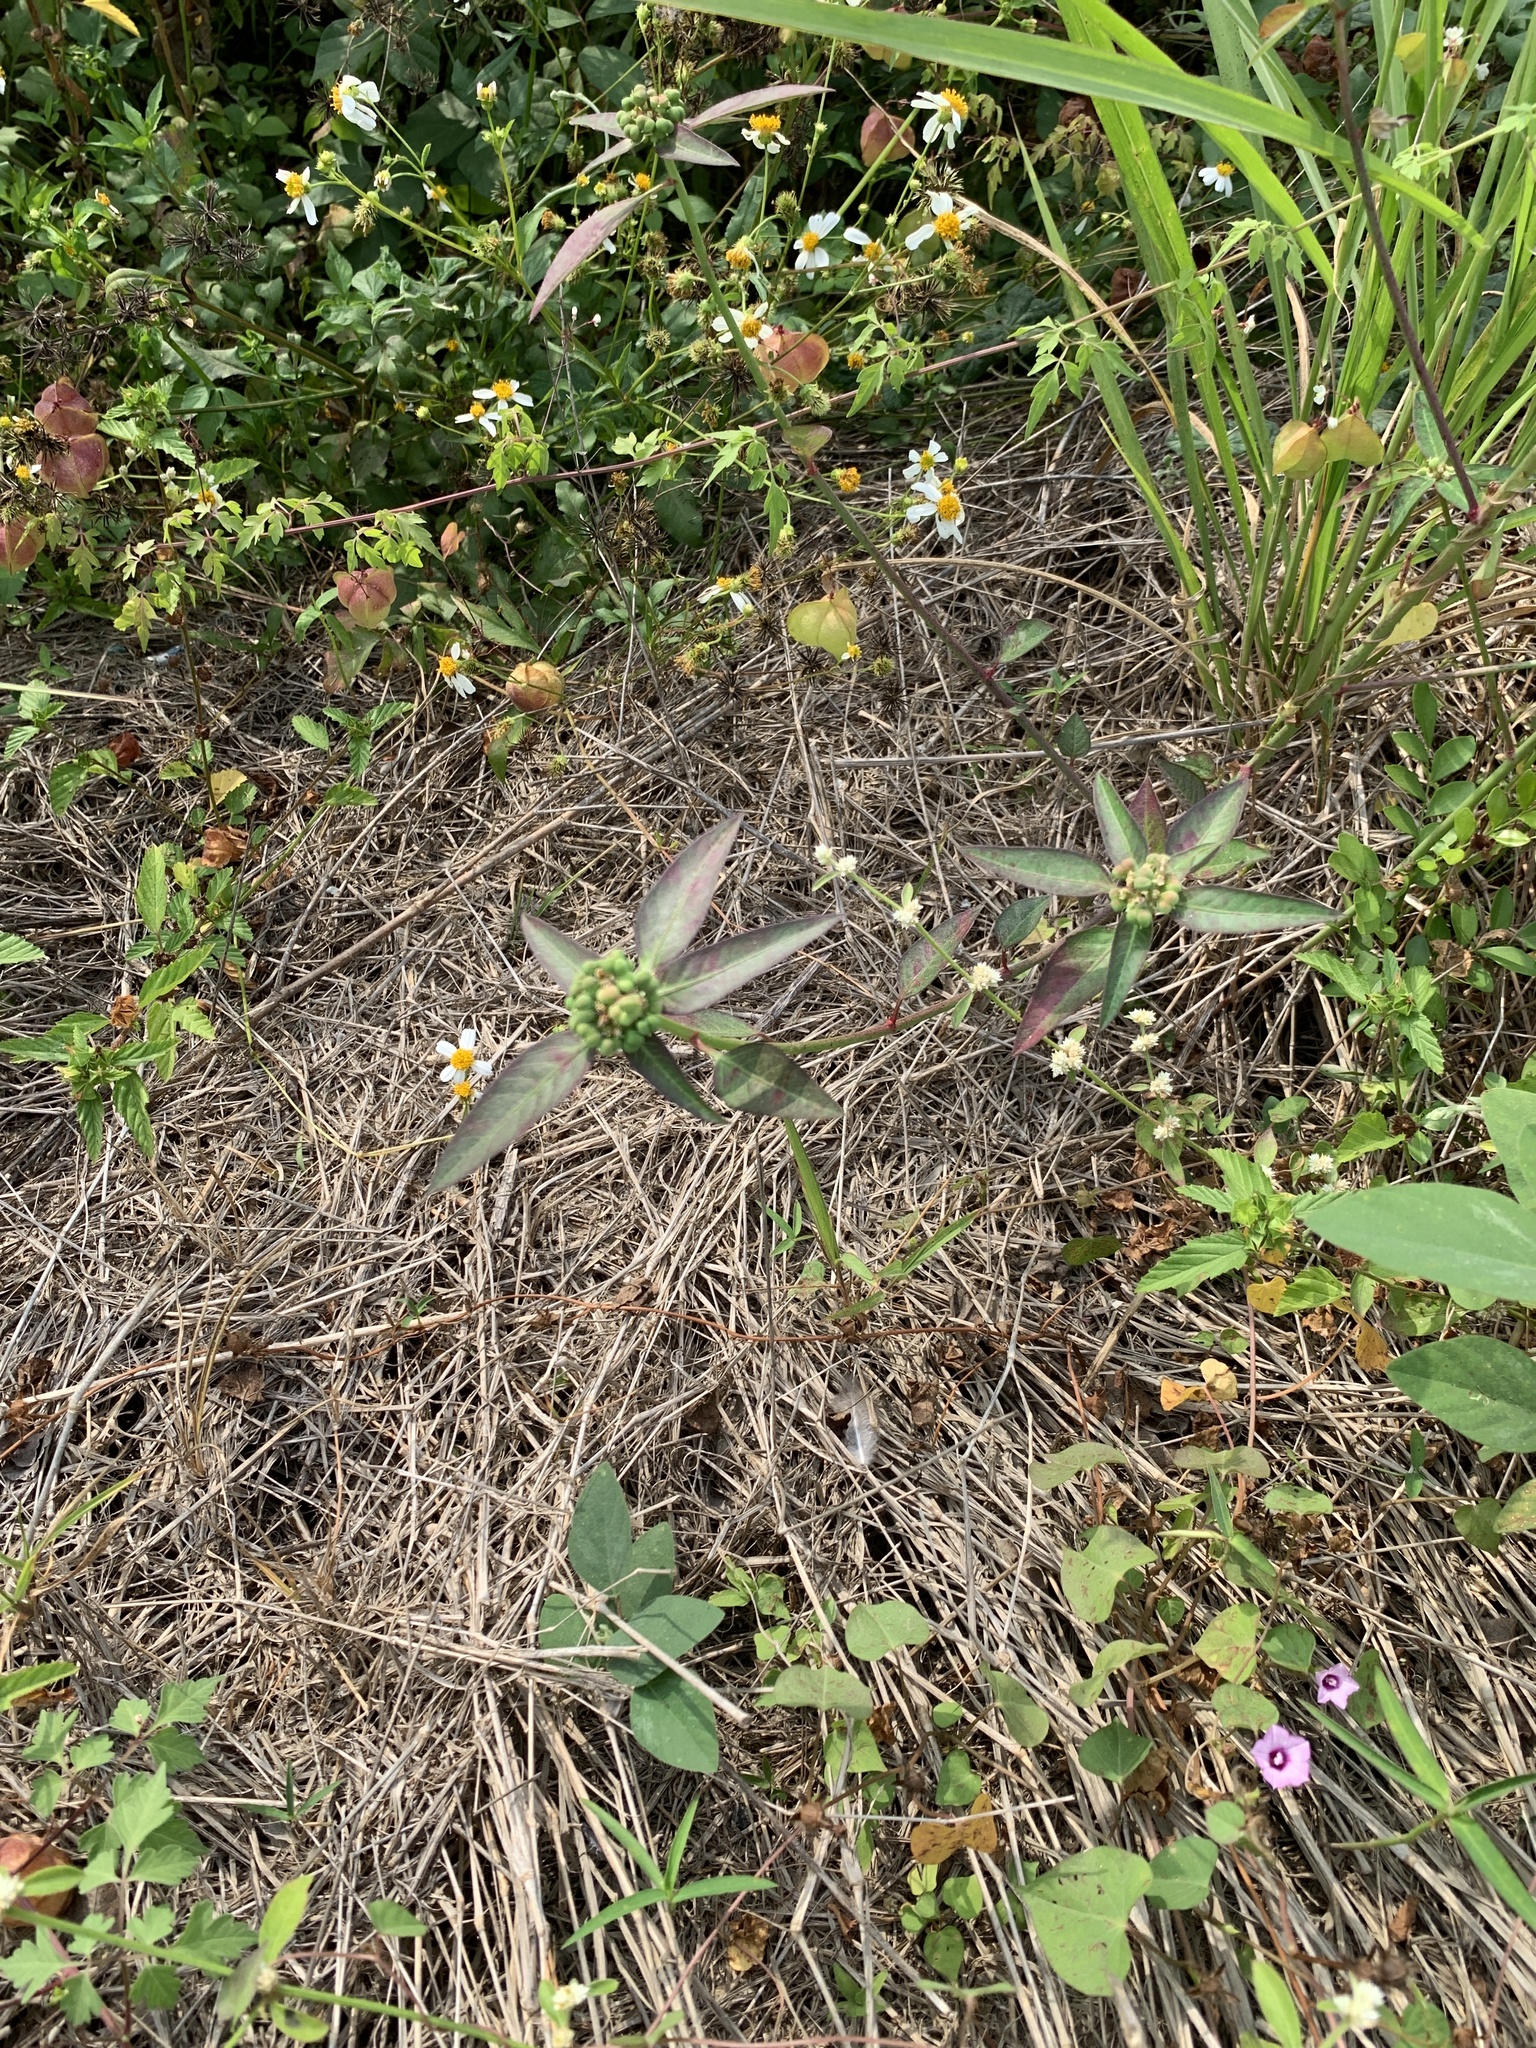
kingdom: Plantae
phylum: Tracheophyta
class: Magnoliopsida
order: Malpighiales
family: Euphorbiaceae
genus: Euphorbia
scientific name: Euphorbia heterophylla
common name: Mexican fireplant
